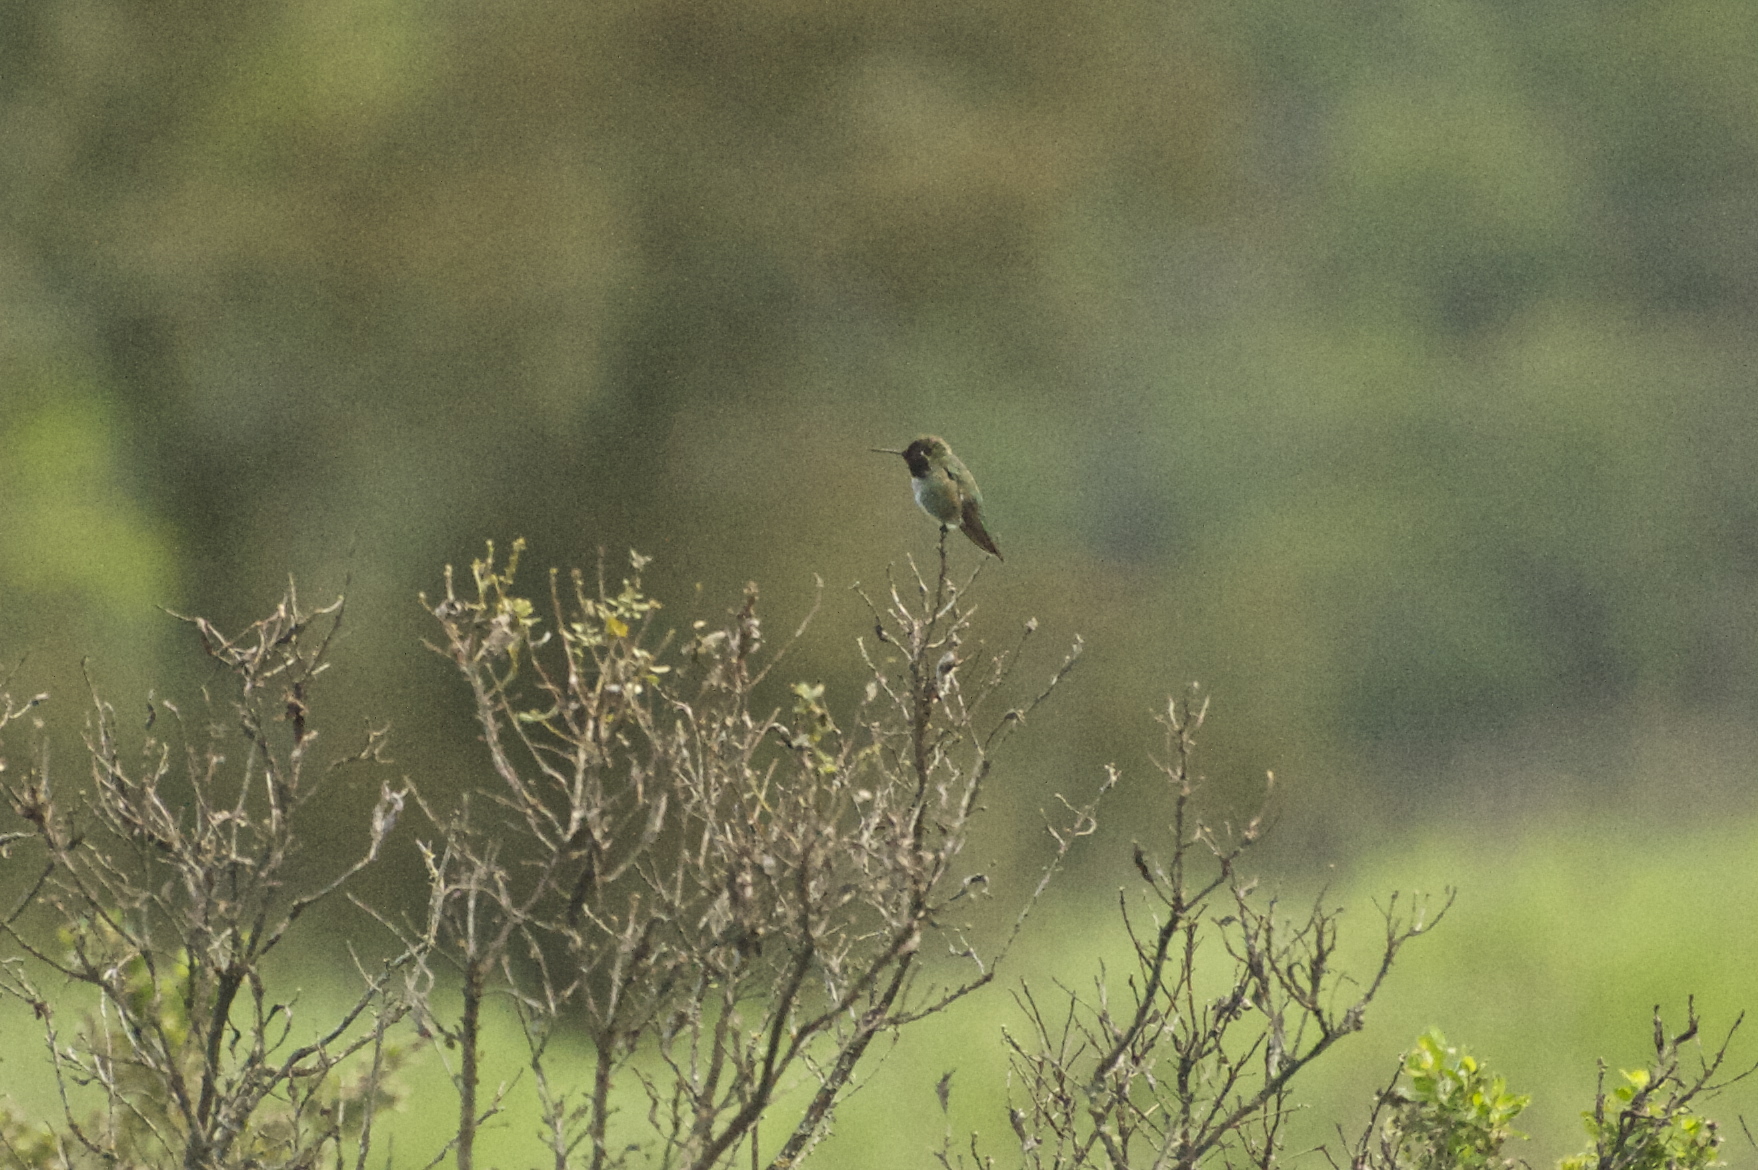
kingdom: Animalia
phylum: Chordata
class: Aves
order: Apodiformes
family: Trochilidae
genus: Calypte
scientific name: Calypte anna
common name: Anna's hummingbird
